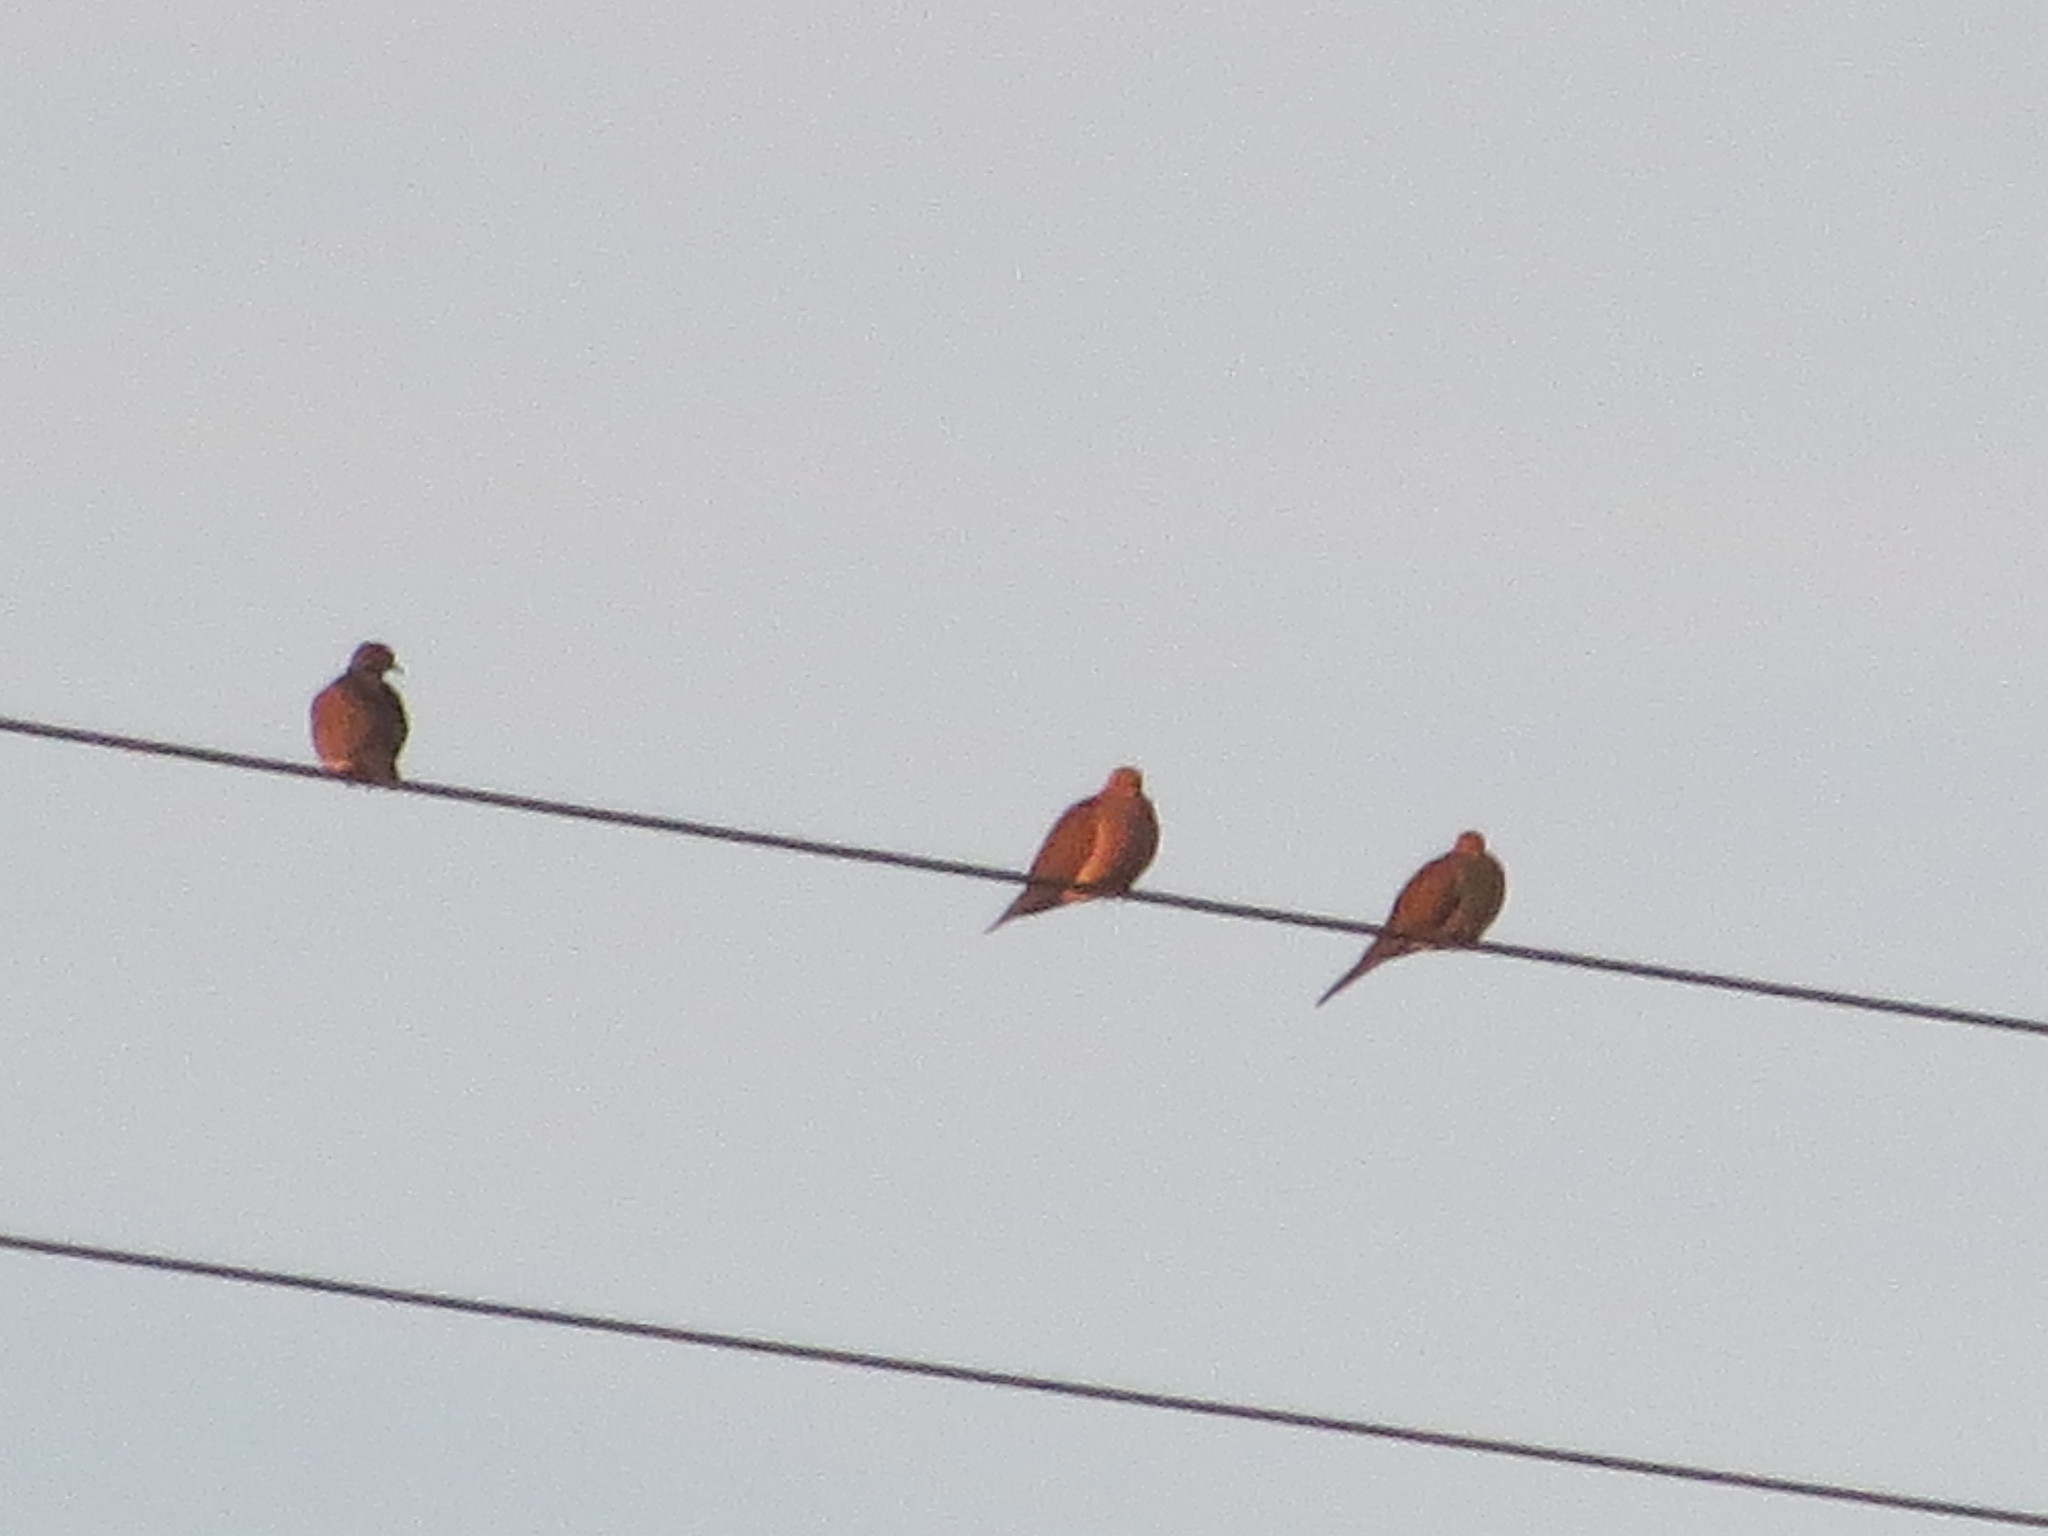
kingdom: Animalia
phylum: Chordata
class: Aves
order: Columbiformes
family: Columbidae
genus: Zenaida
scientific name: Zenaida macroura
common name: Mourning dove
